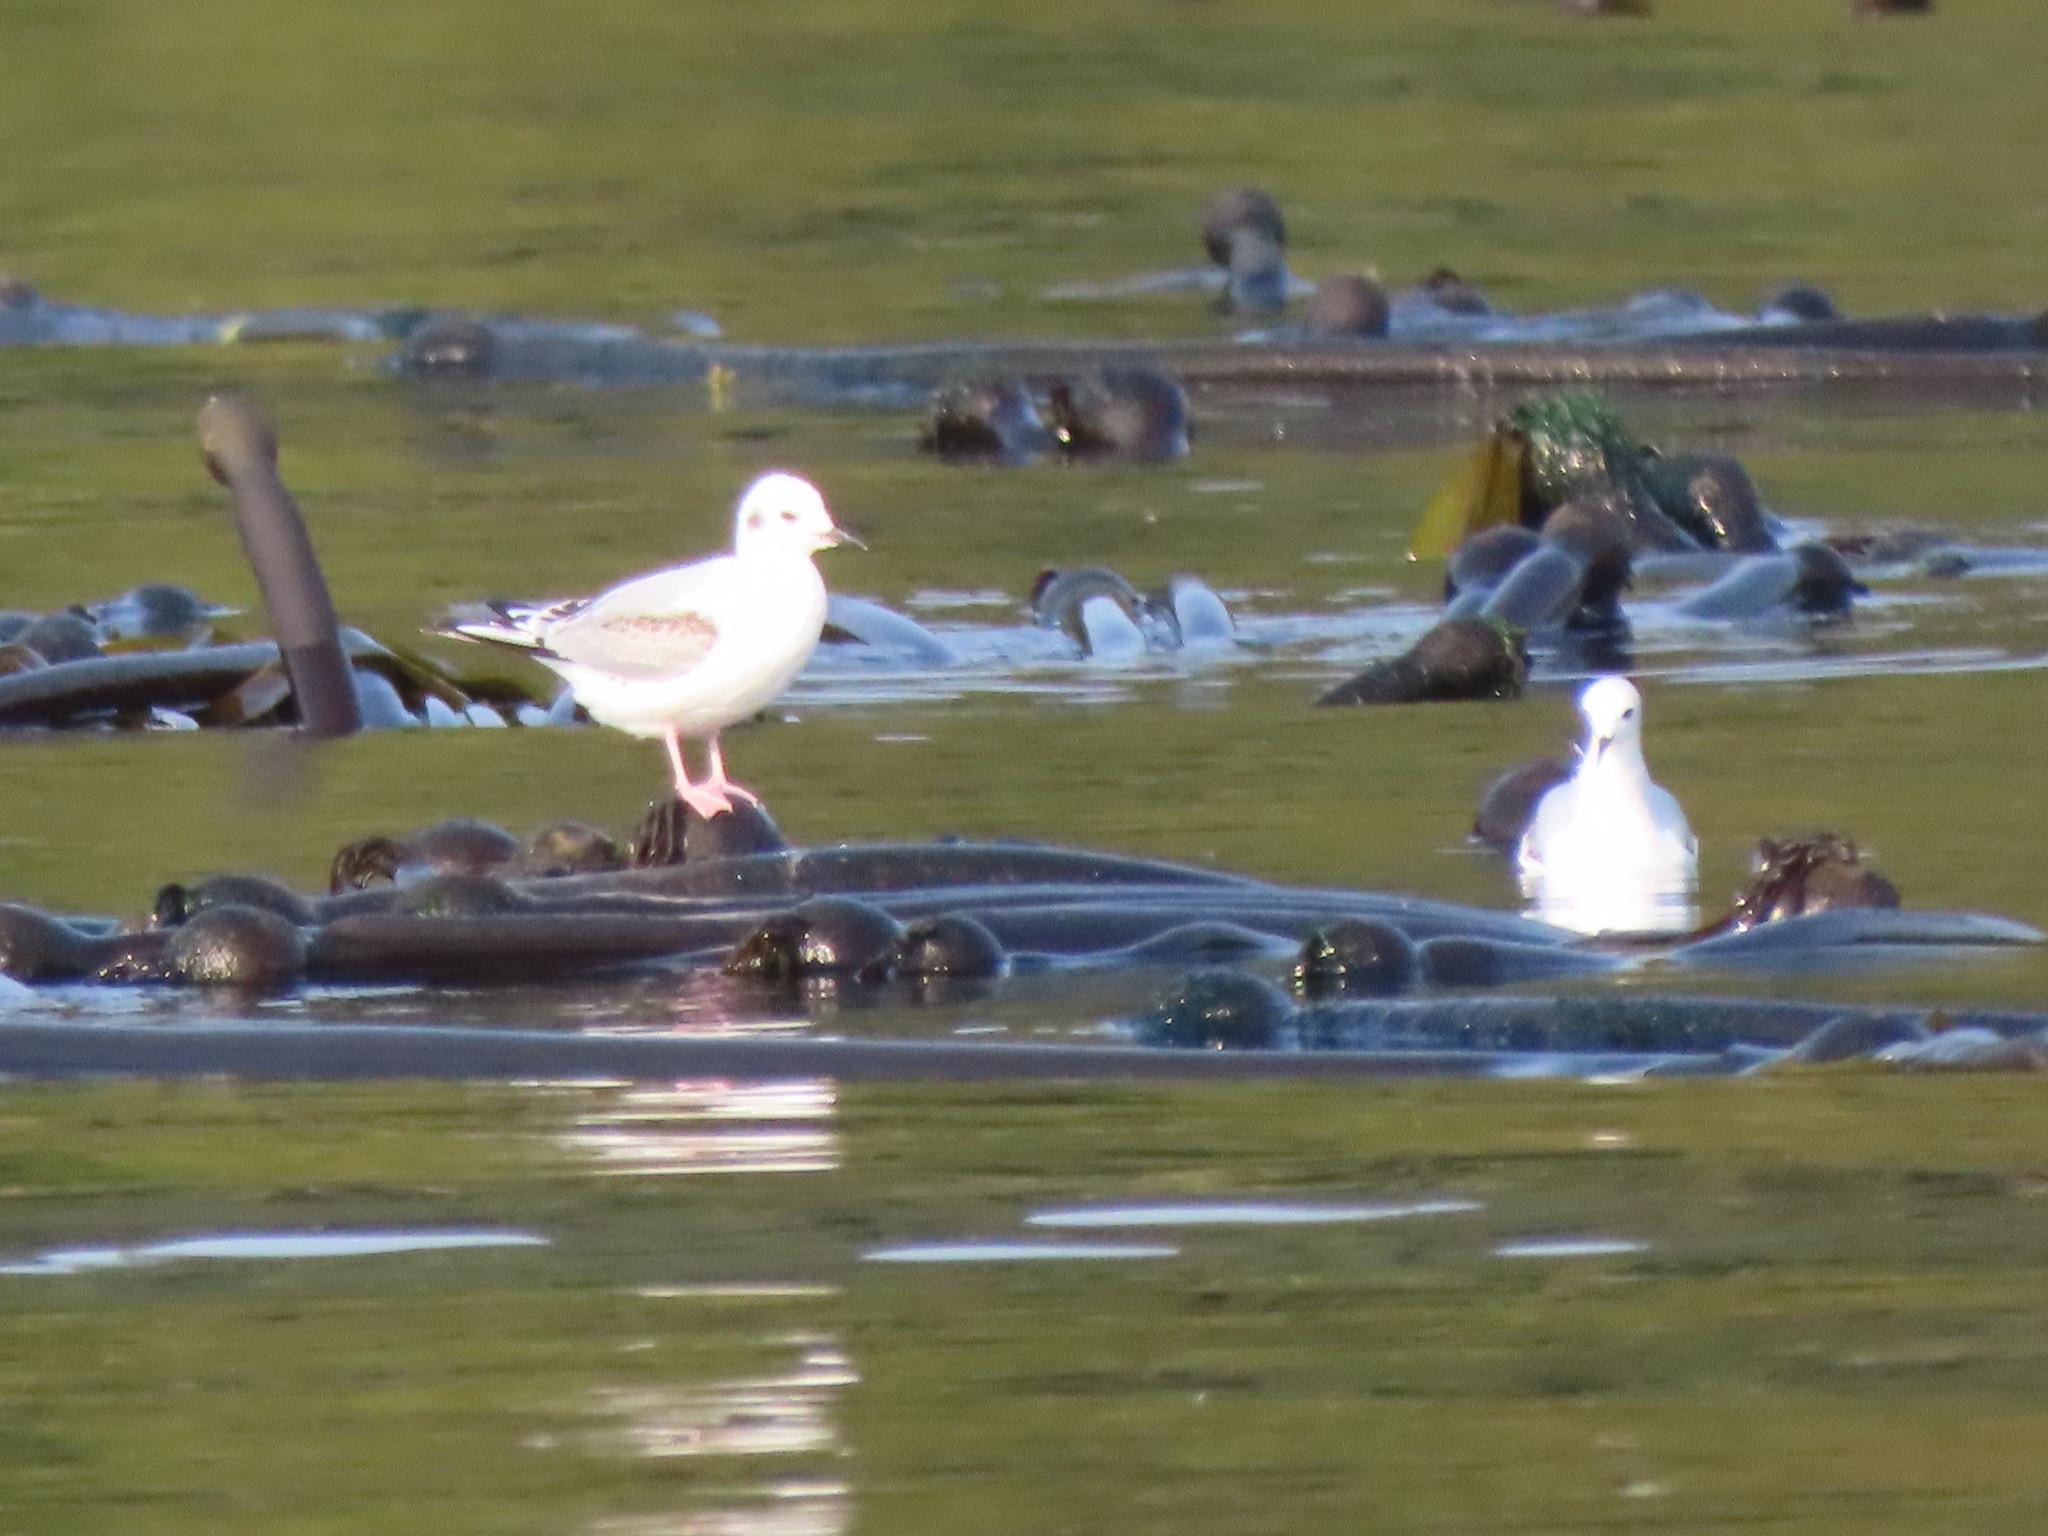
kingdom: Animalia
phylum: Chordata
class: Aves
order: Charadriiformes
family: Laridae
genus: Chroicocephalus
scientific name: Chroicocephalus philadelphia
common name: Bonaparte's gull
